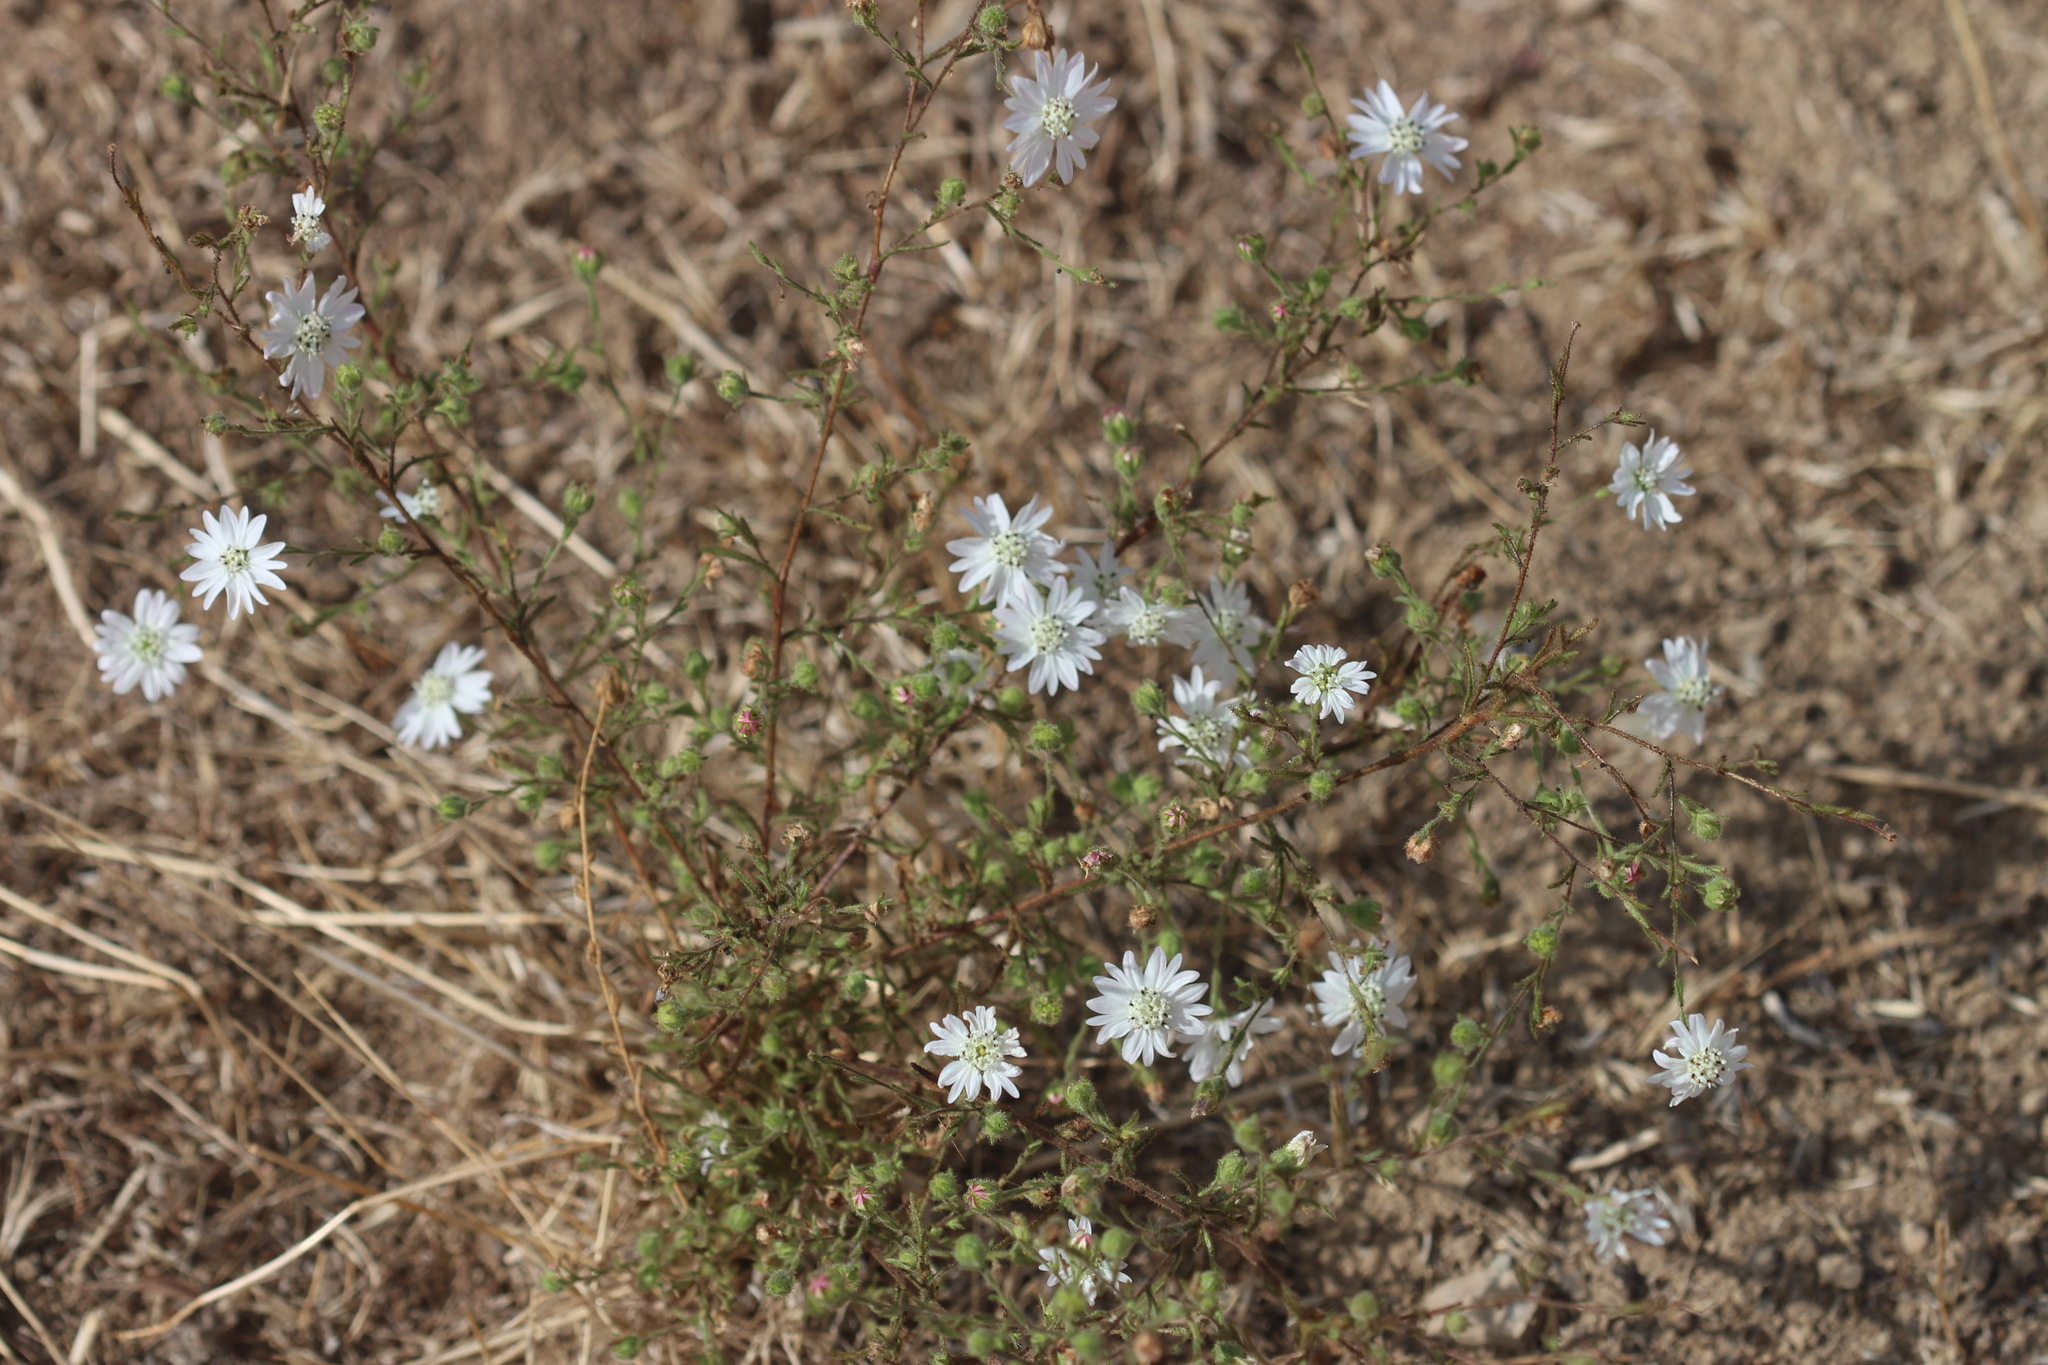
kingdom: Plantae
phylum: Tracheophyta
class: Magnoliopsida
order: Asterales
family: Asteraceae
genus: Hemizonia
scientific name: Hemizonia congesta
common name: Hayfield tarweed
